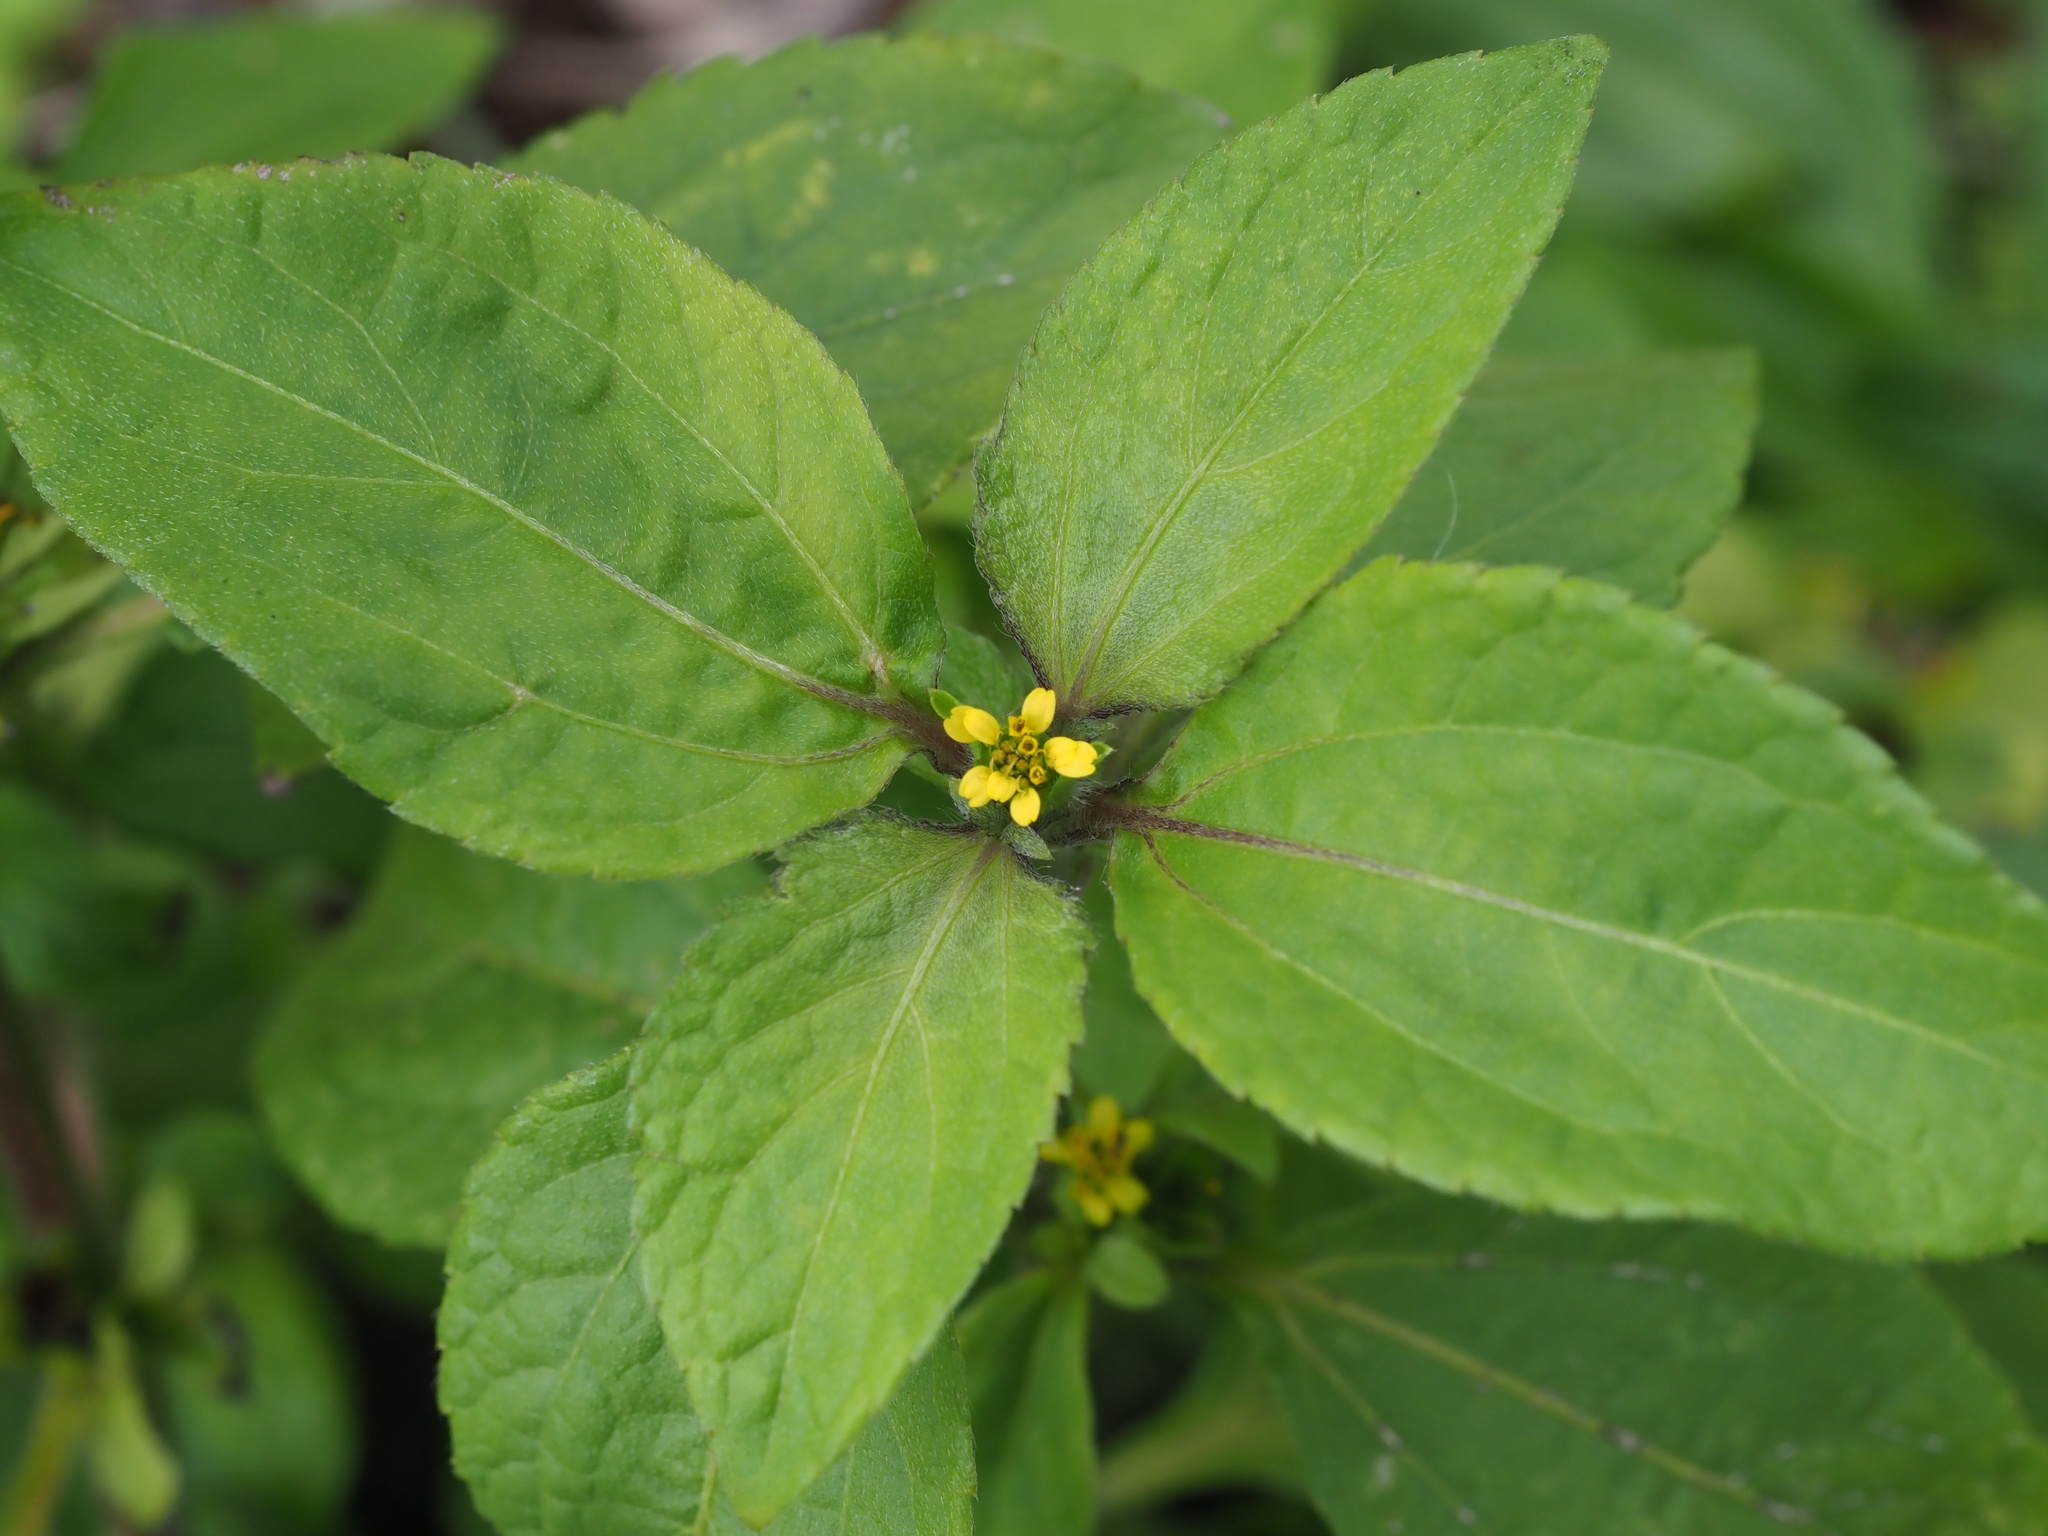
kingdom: Plantae
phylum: Tracheophyta
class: Magnoliopsida
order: Asterales
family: Asteraceae
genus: Synedrella
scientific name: Synedrella nodiflora
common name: Nodeweed
